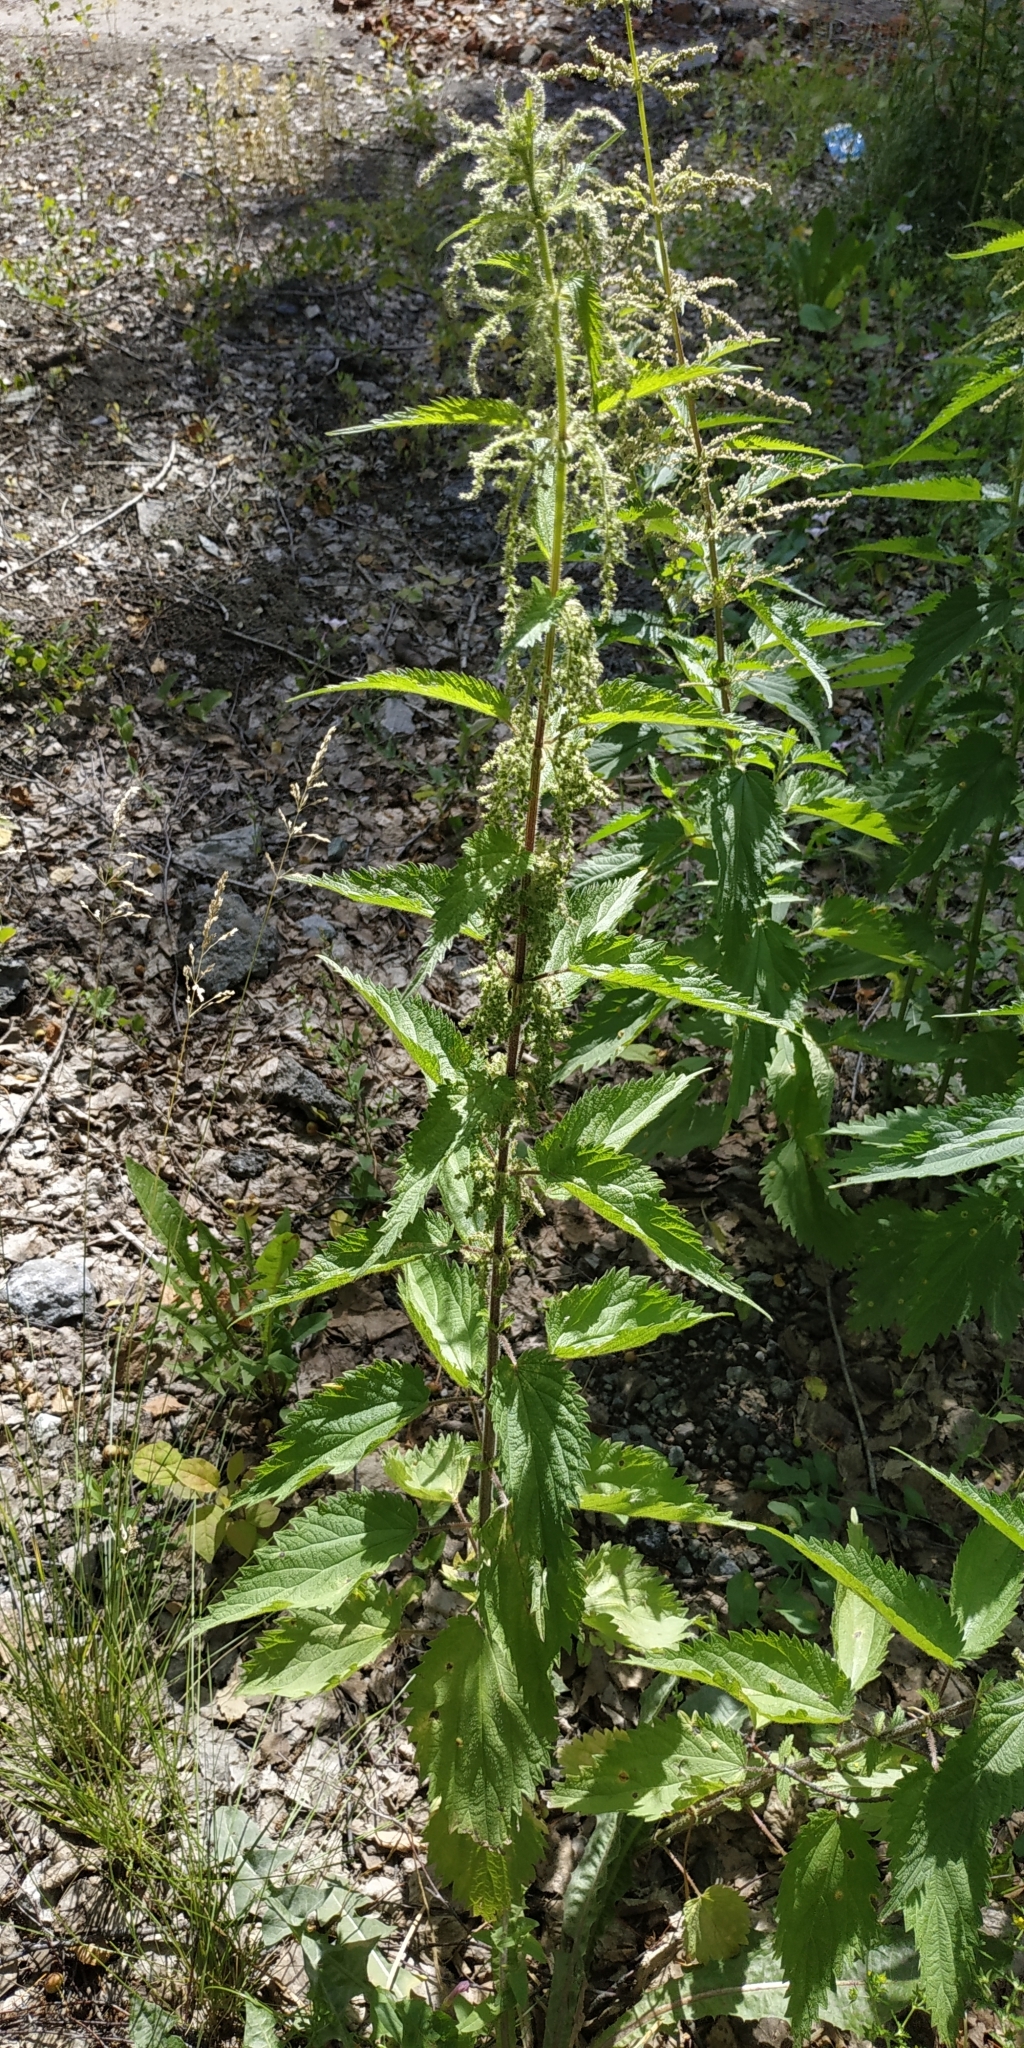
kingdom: Plantae
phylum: Tracheophyta
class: Magnoliopsida
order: Rosales
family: Urticaceae
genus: Urtica
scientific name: Urtica dioica
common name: Common nettle
